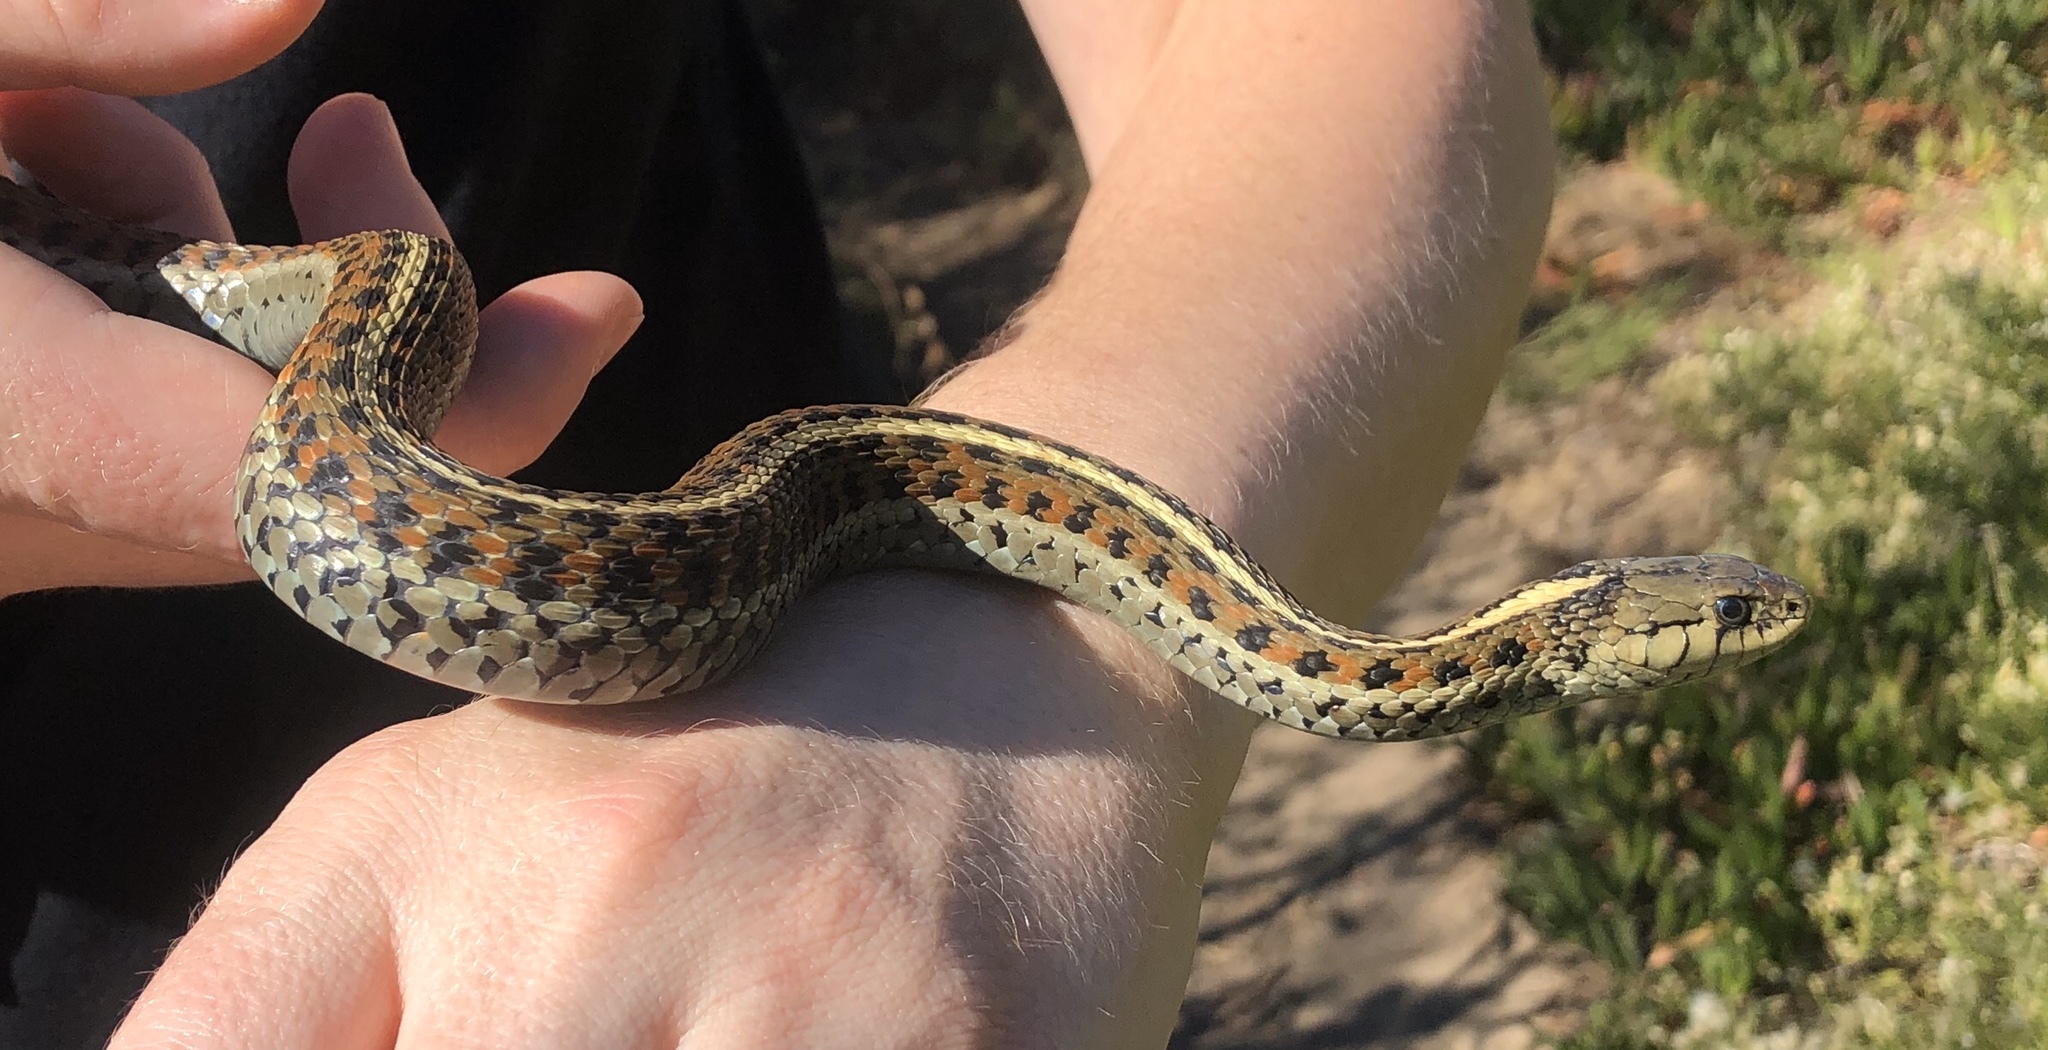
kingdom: Animalia
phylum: Chordata
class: Squamata
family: Colubridae
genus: Thamnophis
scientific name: Thamnophis elegans
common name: Western terrestrial garter snake
